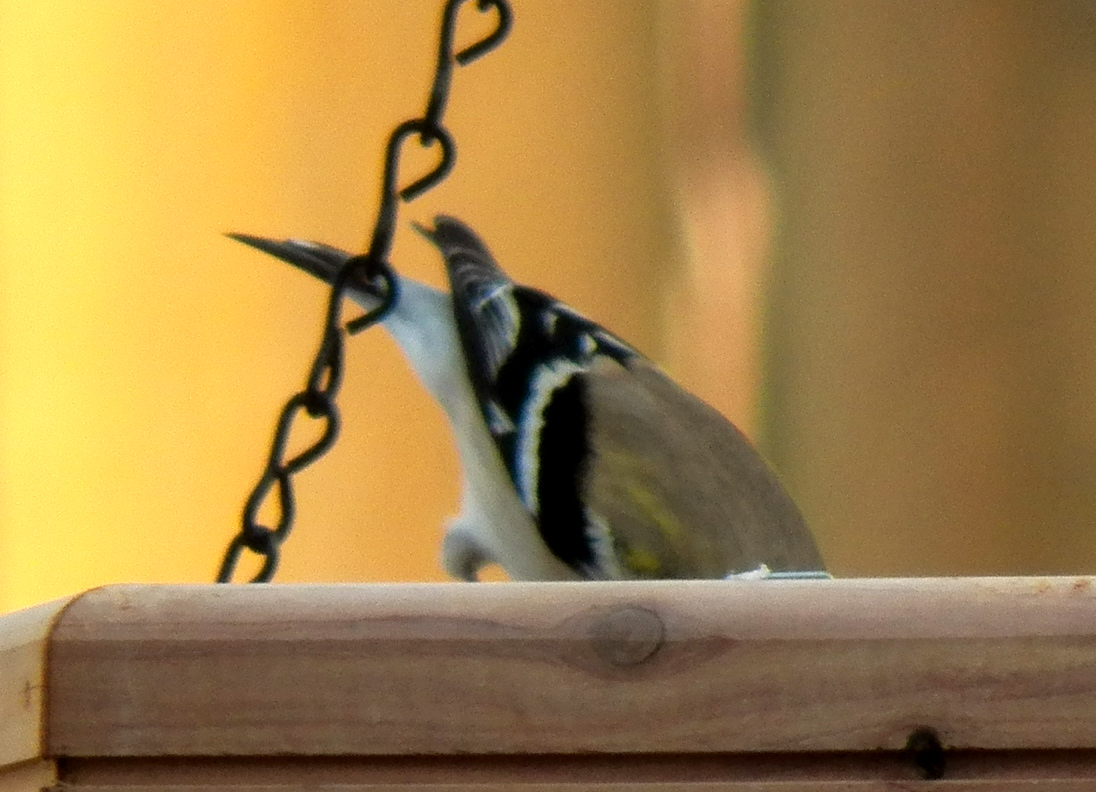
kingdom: Animalia
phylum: Chordata
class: Aves
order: Passeriformes
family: Fringillidae
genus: Spinus
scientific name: Spinus tristis
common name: American goldfinch
